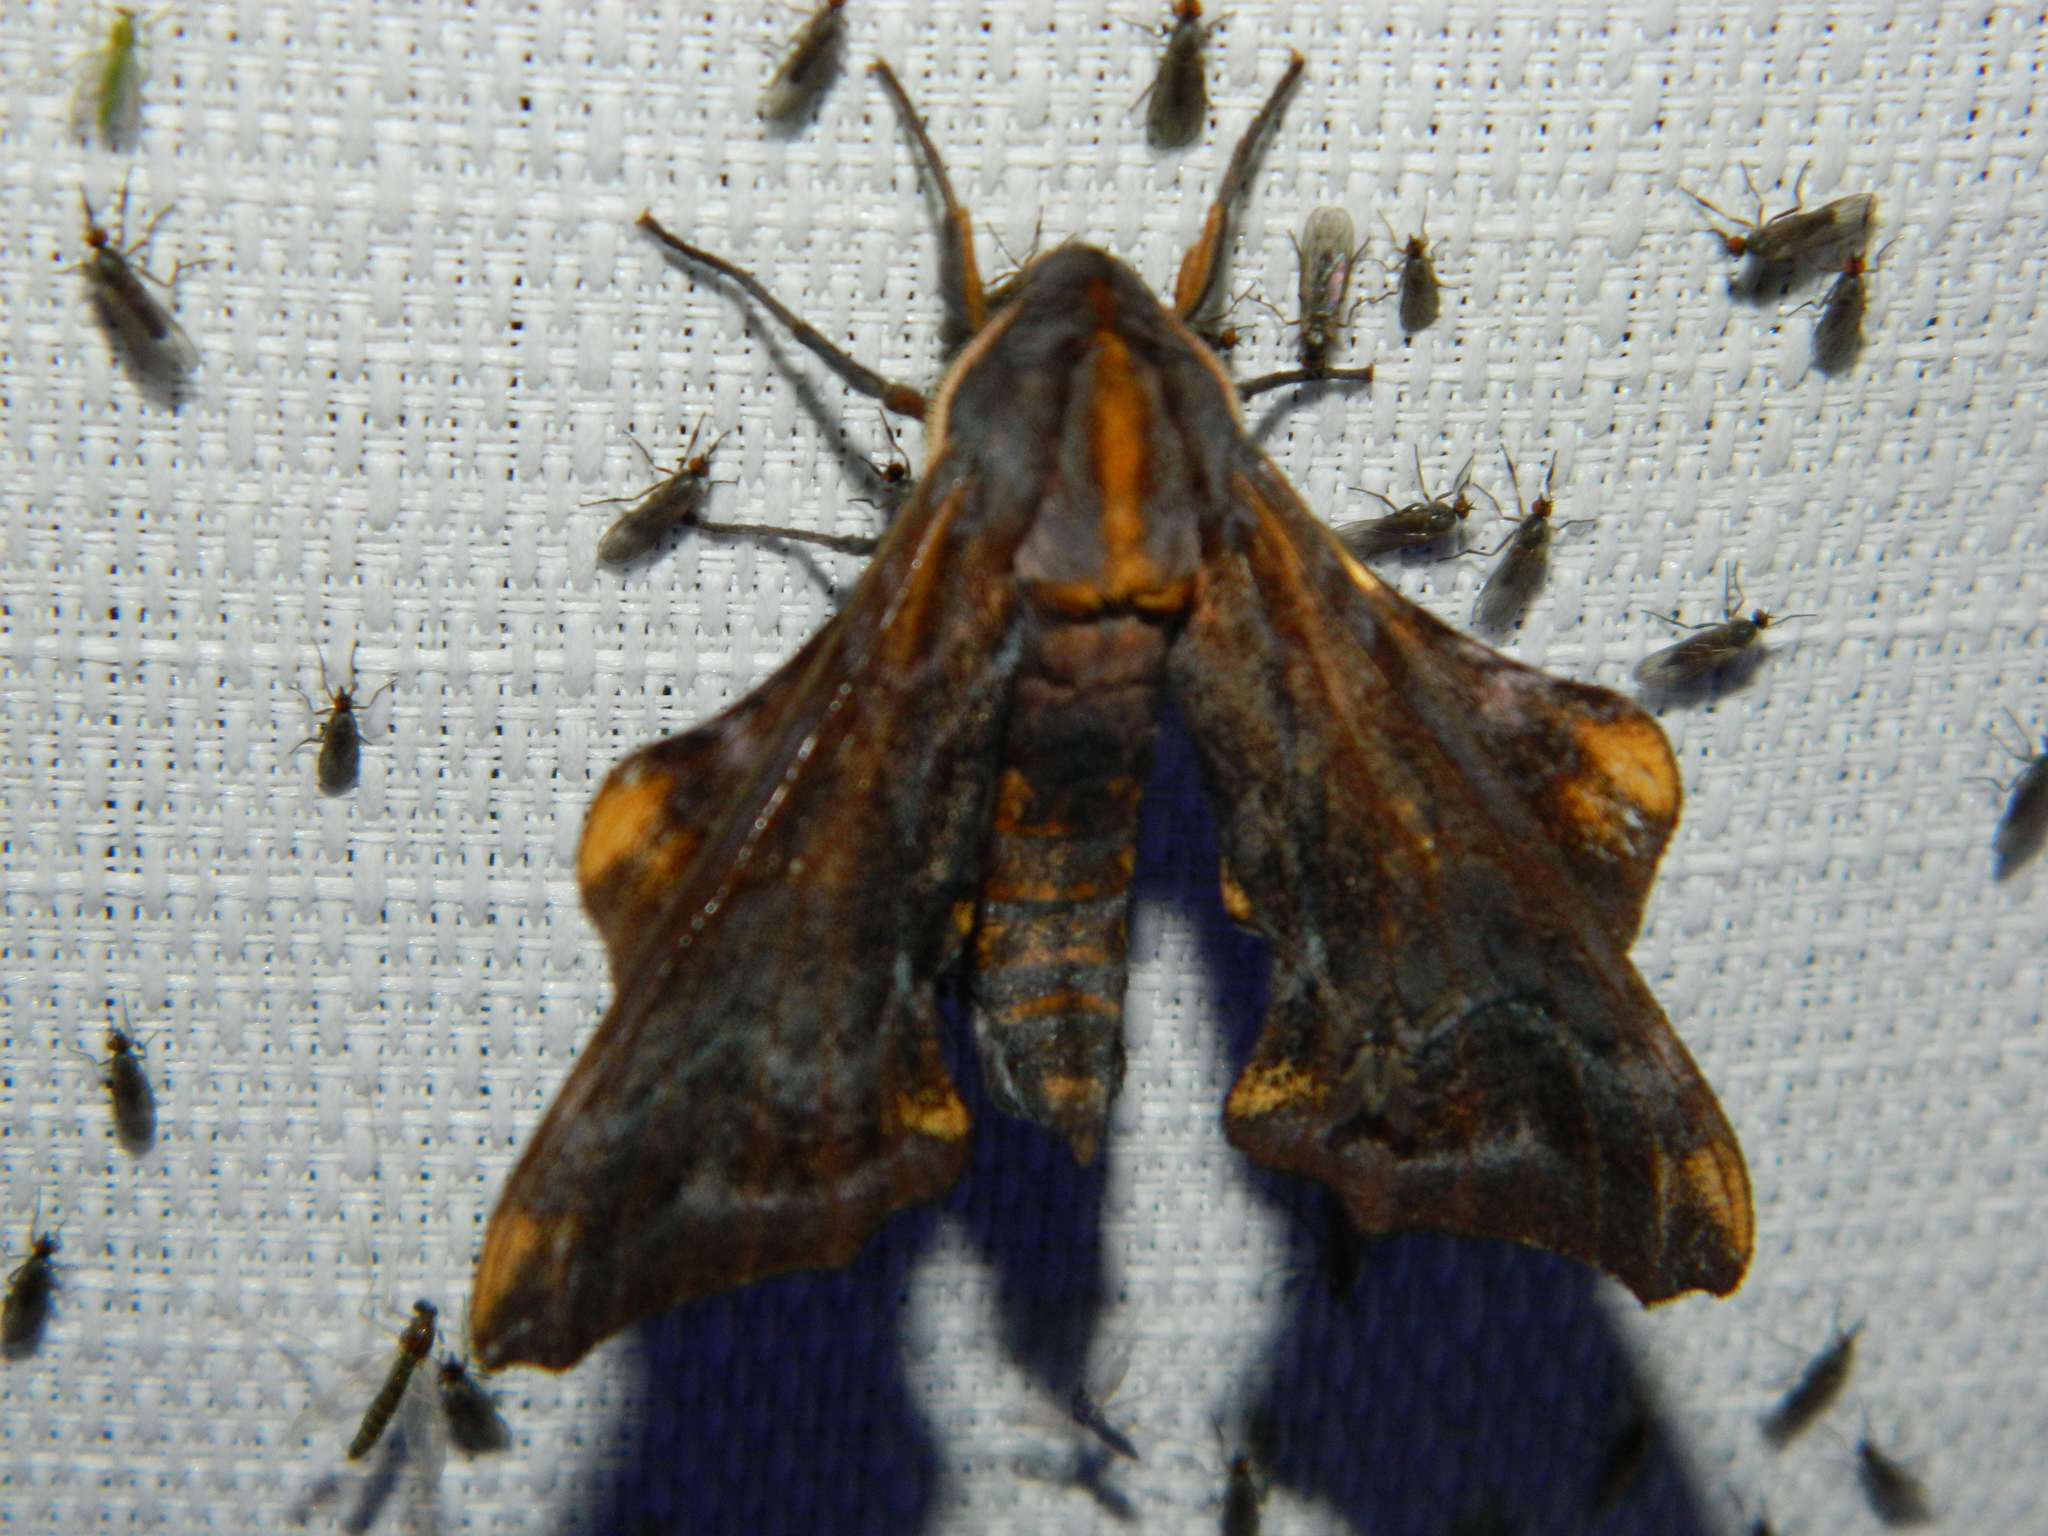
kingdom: Animalia
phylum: Arthropoda
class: Insecta
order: Lepidoptera
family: Sphingidae
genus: Paonias
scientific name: Paonias myops
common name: Small-eyed sphinx
